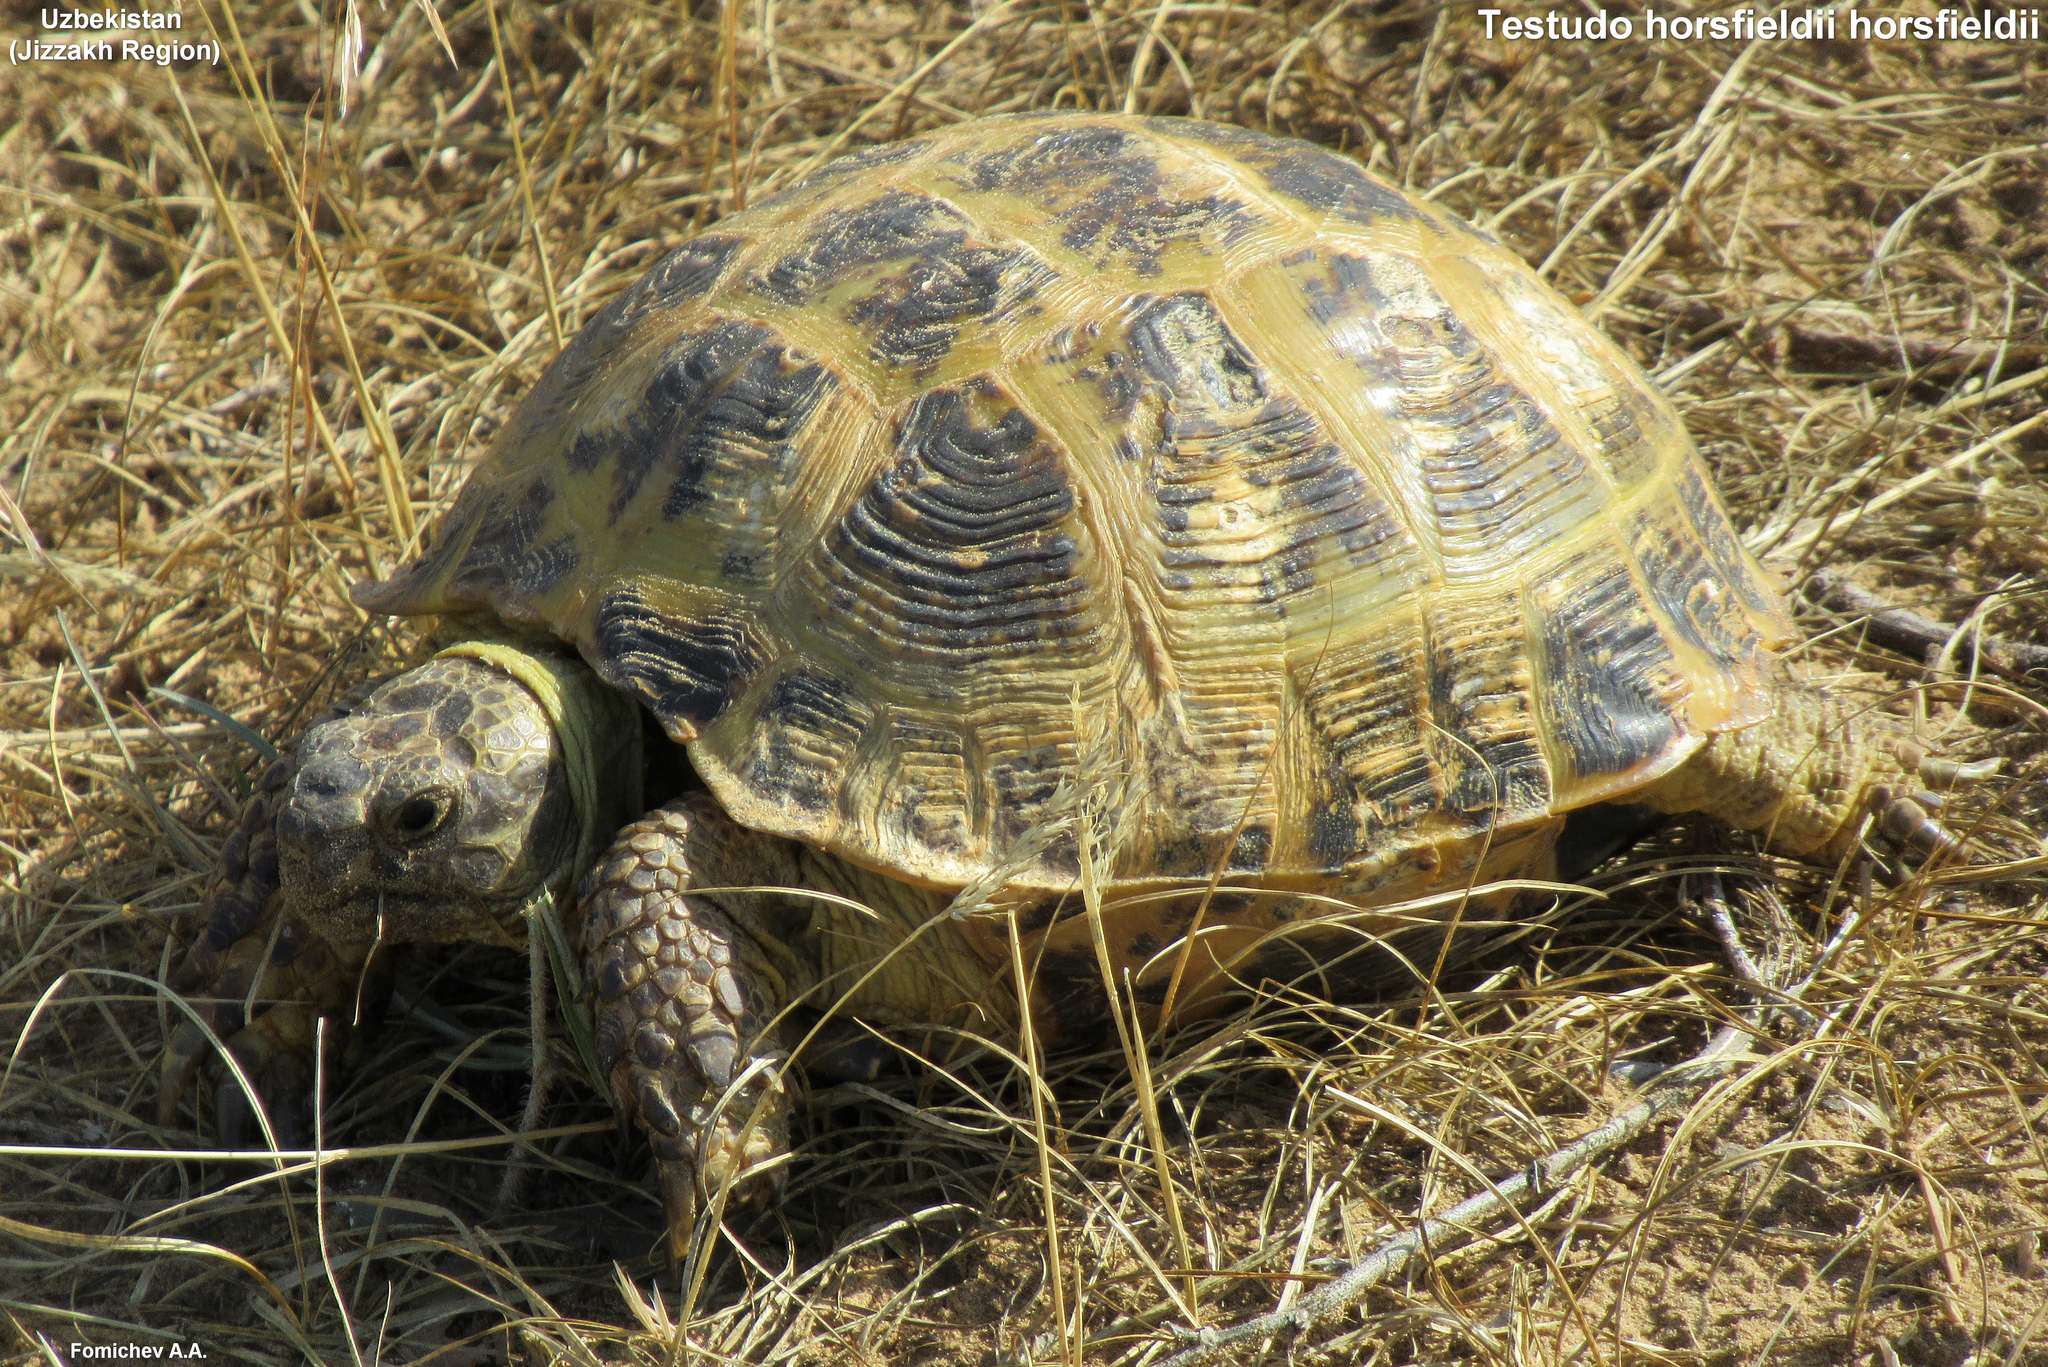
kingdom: Animalia
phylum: Chordata
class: Testudines
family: Testudinidae
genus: Testudo
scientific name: Testudo horsfieldii
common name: Central asia tortoise
